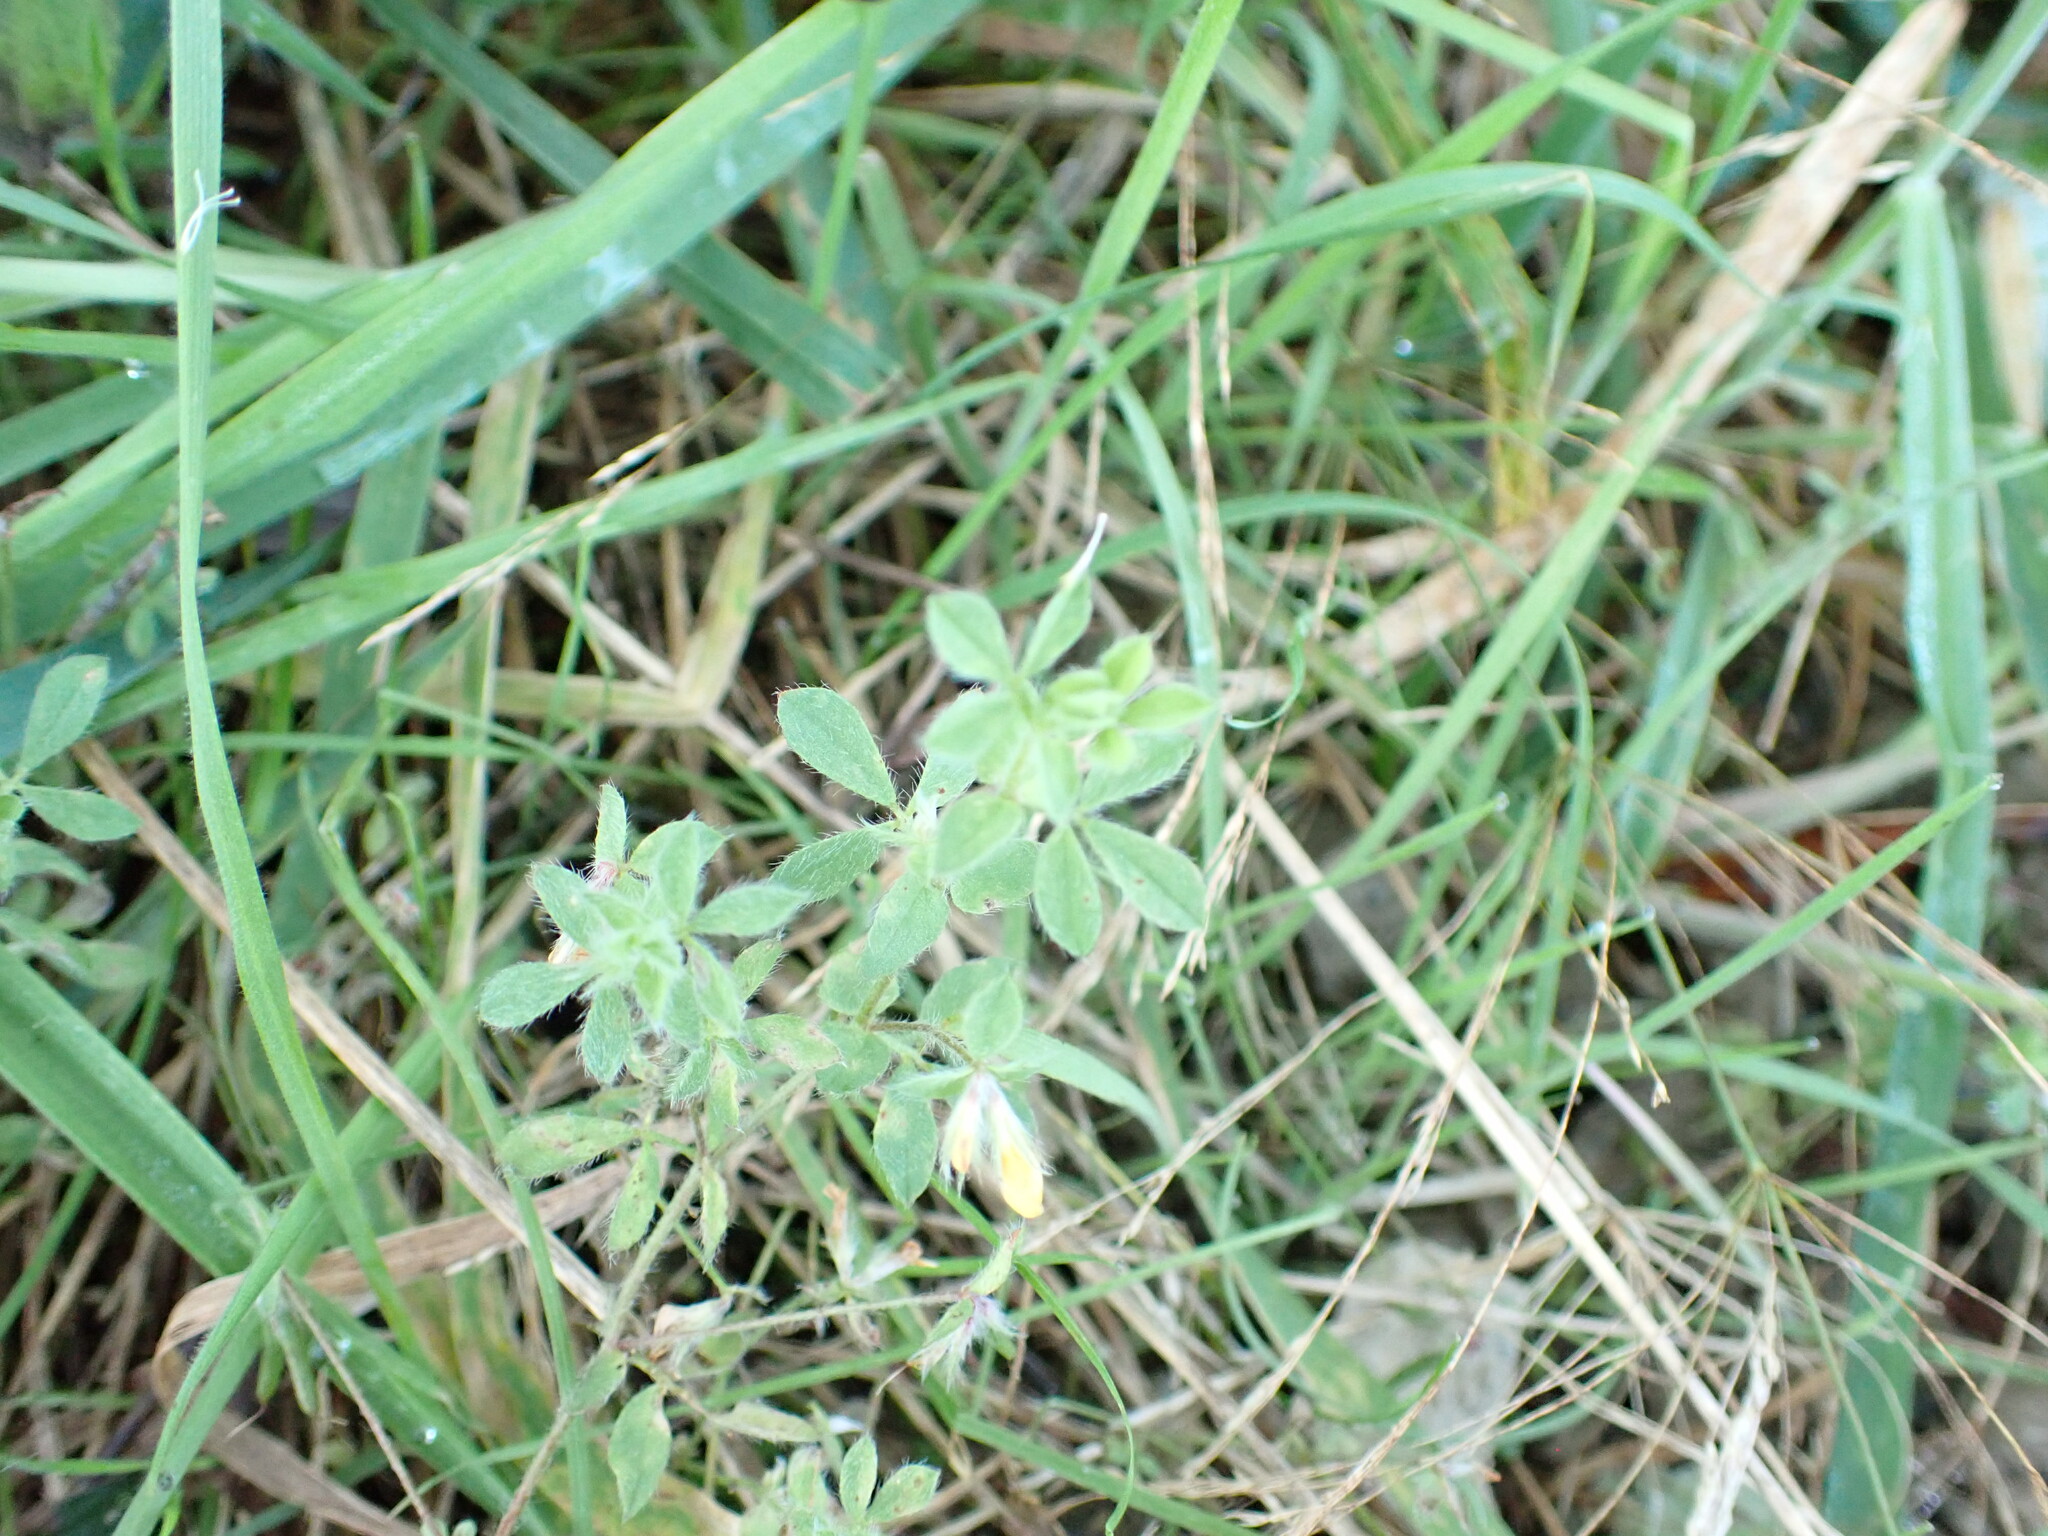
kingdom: Plantae
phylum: Tracheophyta
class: Magnoliopsida
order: Fabales
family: Fabaceae
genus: Lotus
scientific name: Lotus subbiflorus
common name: Hairy bird's-foot trefoil
